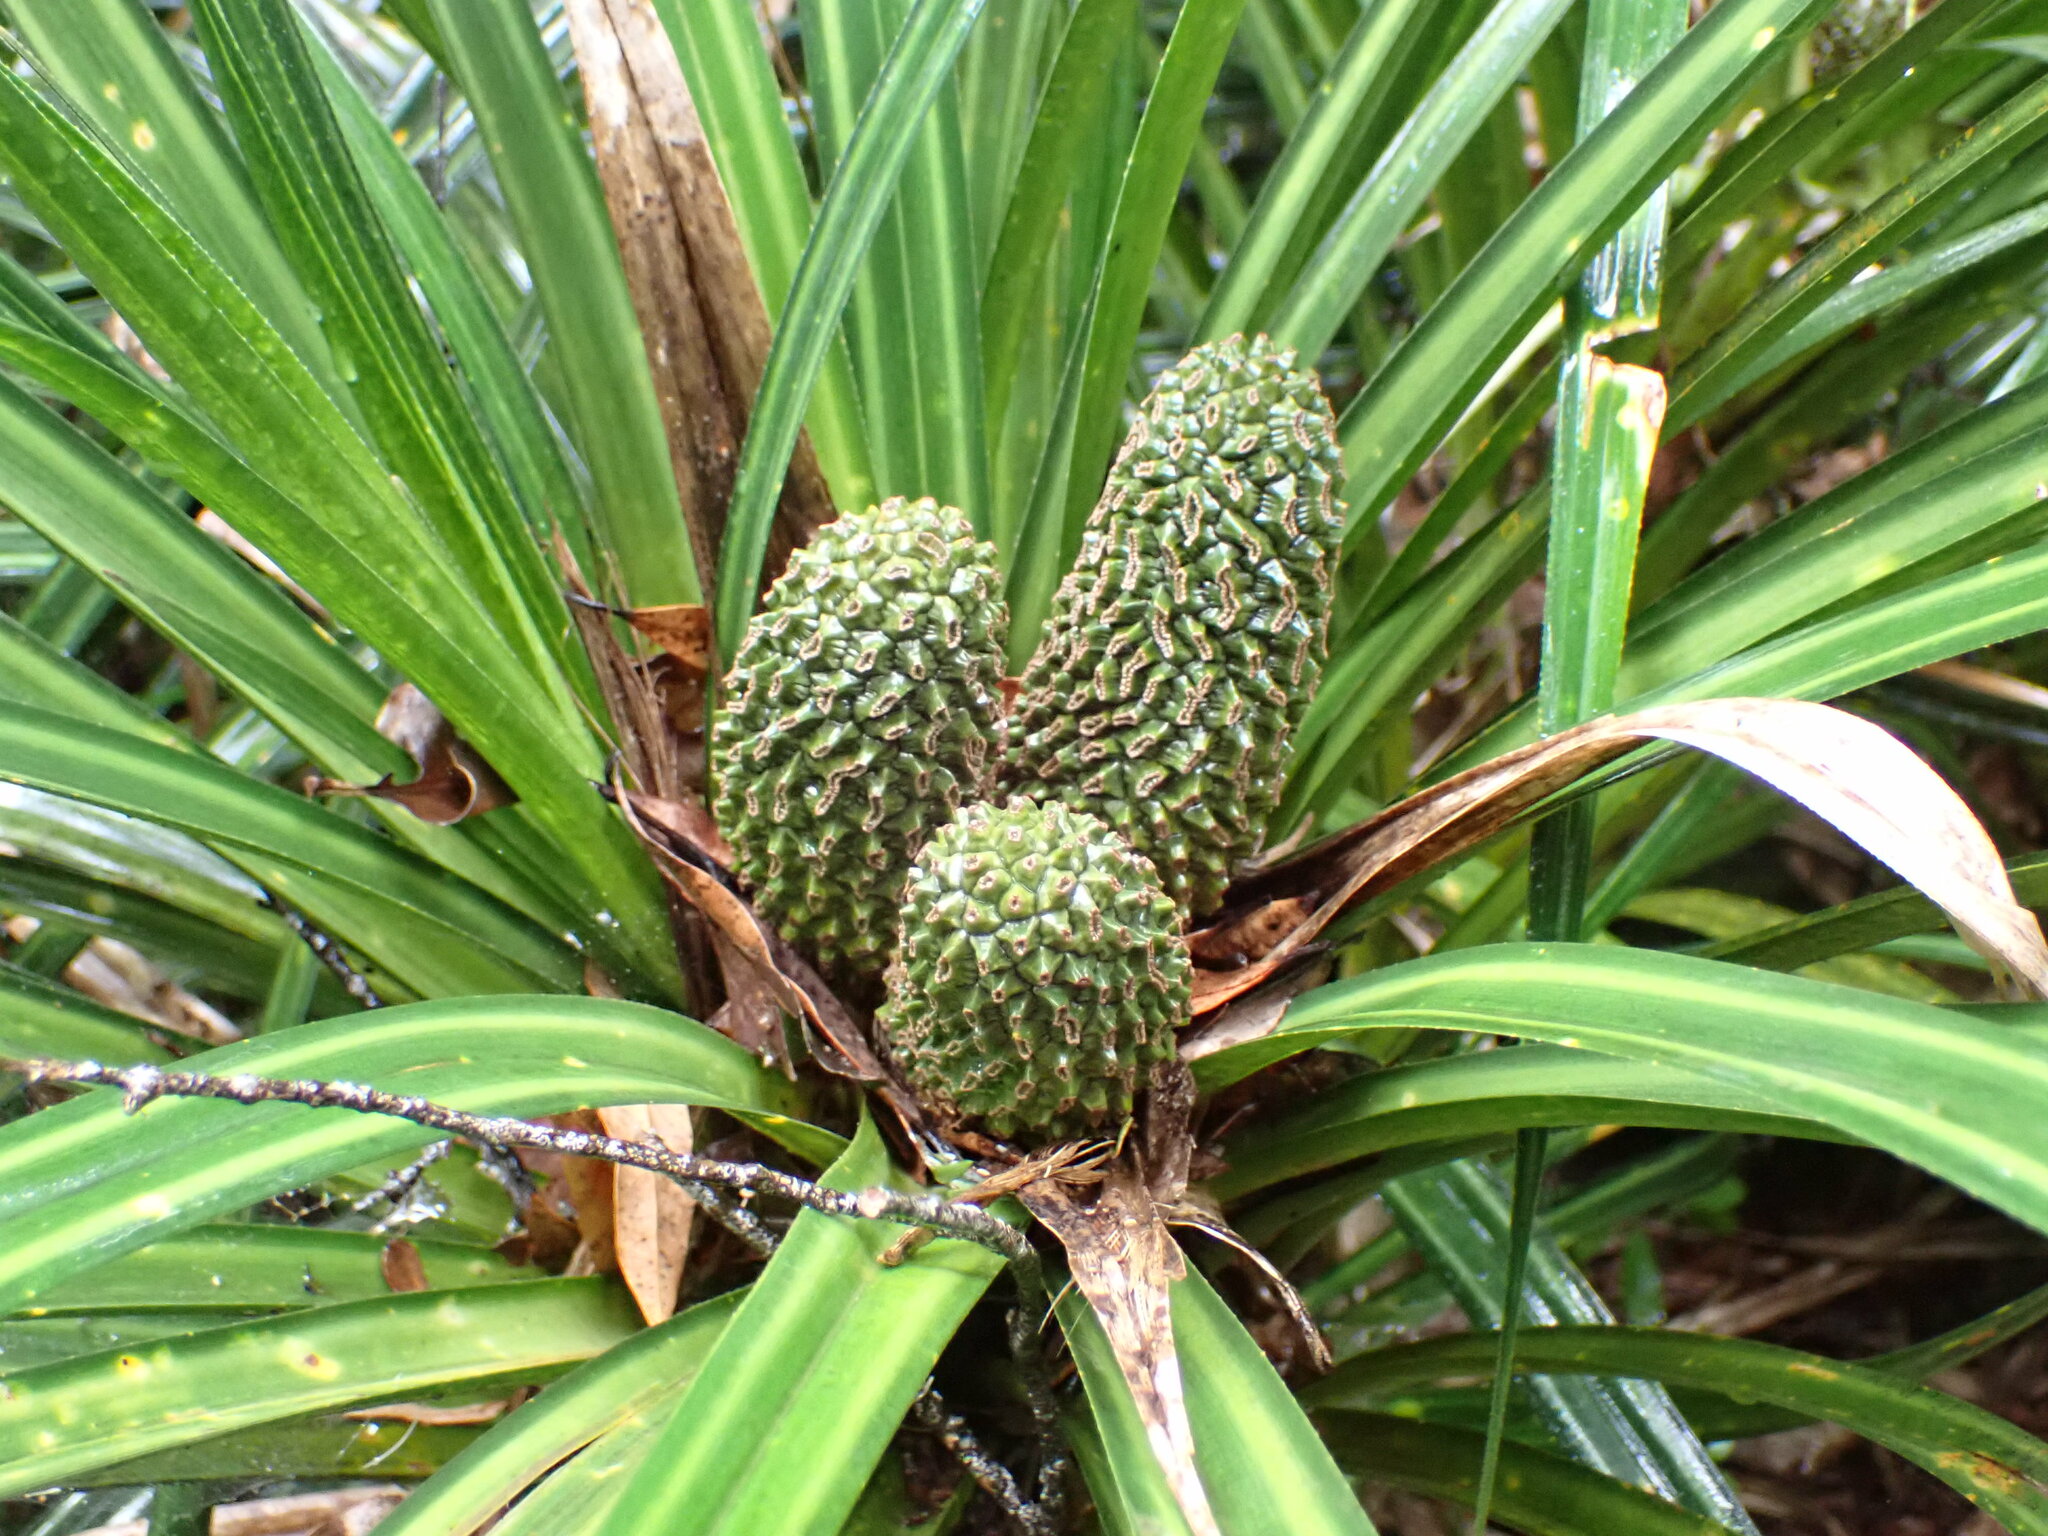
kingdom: Plantae
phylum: Tracheophyta
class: Liliopsida
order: Pandanales
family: Pandanaceae
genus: Freycinetia
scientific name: Freycinetia banksii
